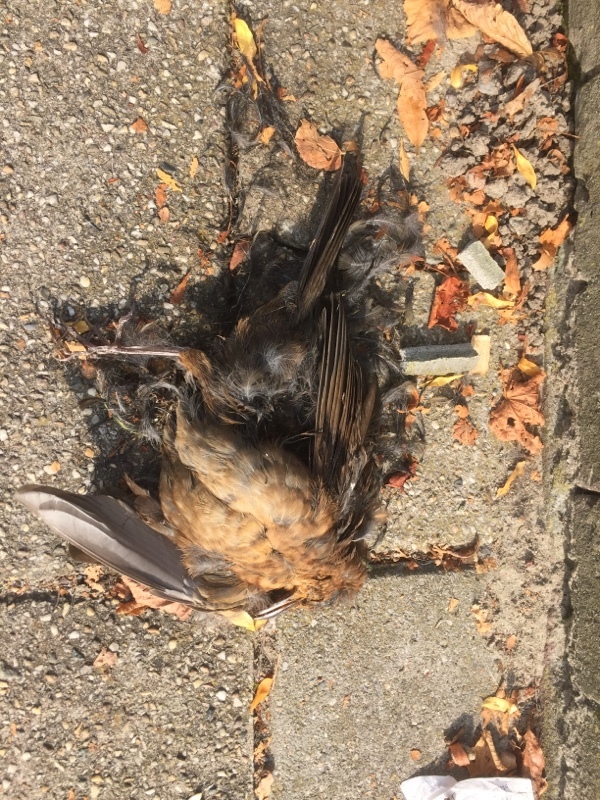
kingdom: Animalia
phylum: Chordata
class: Aves
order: Passeriformes
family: Turdidae
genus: Turdus
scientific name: Turdus merula
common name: Common blackbird
